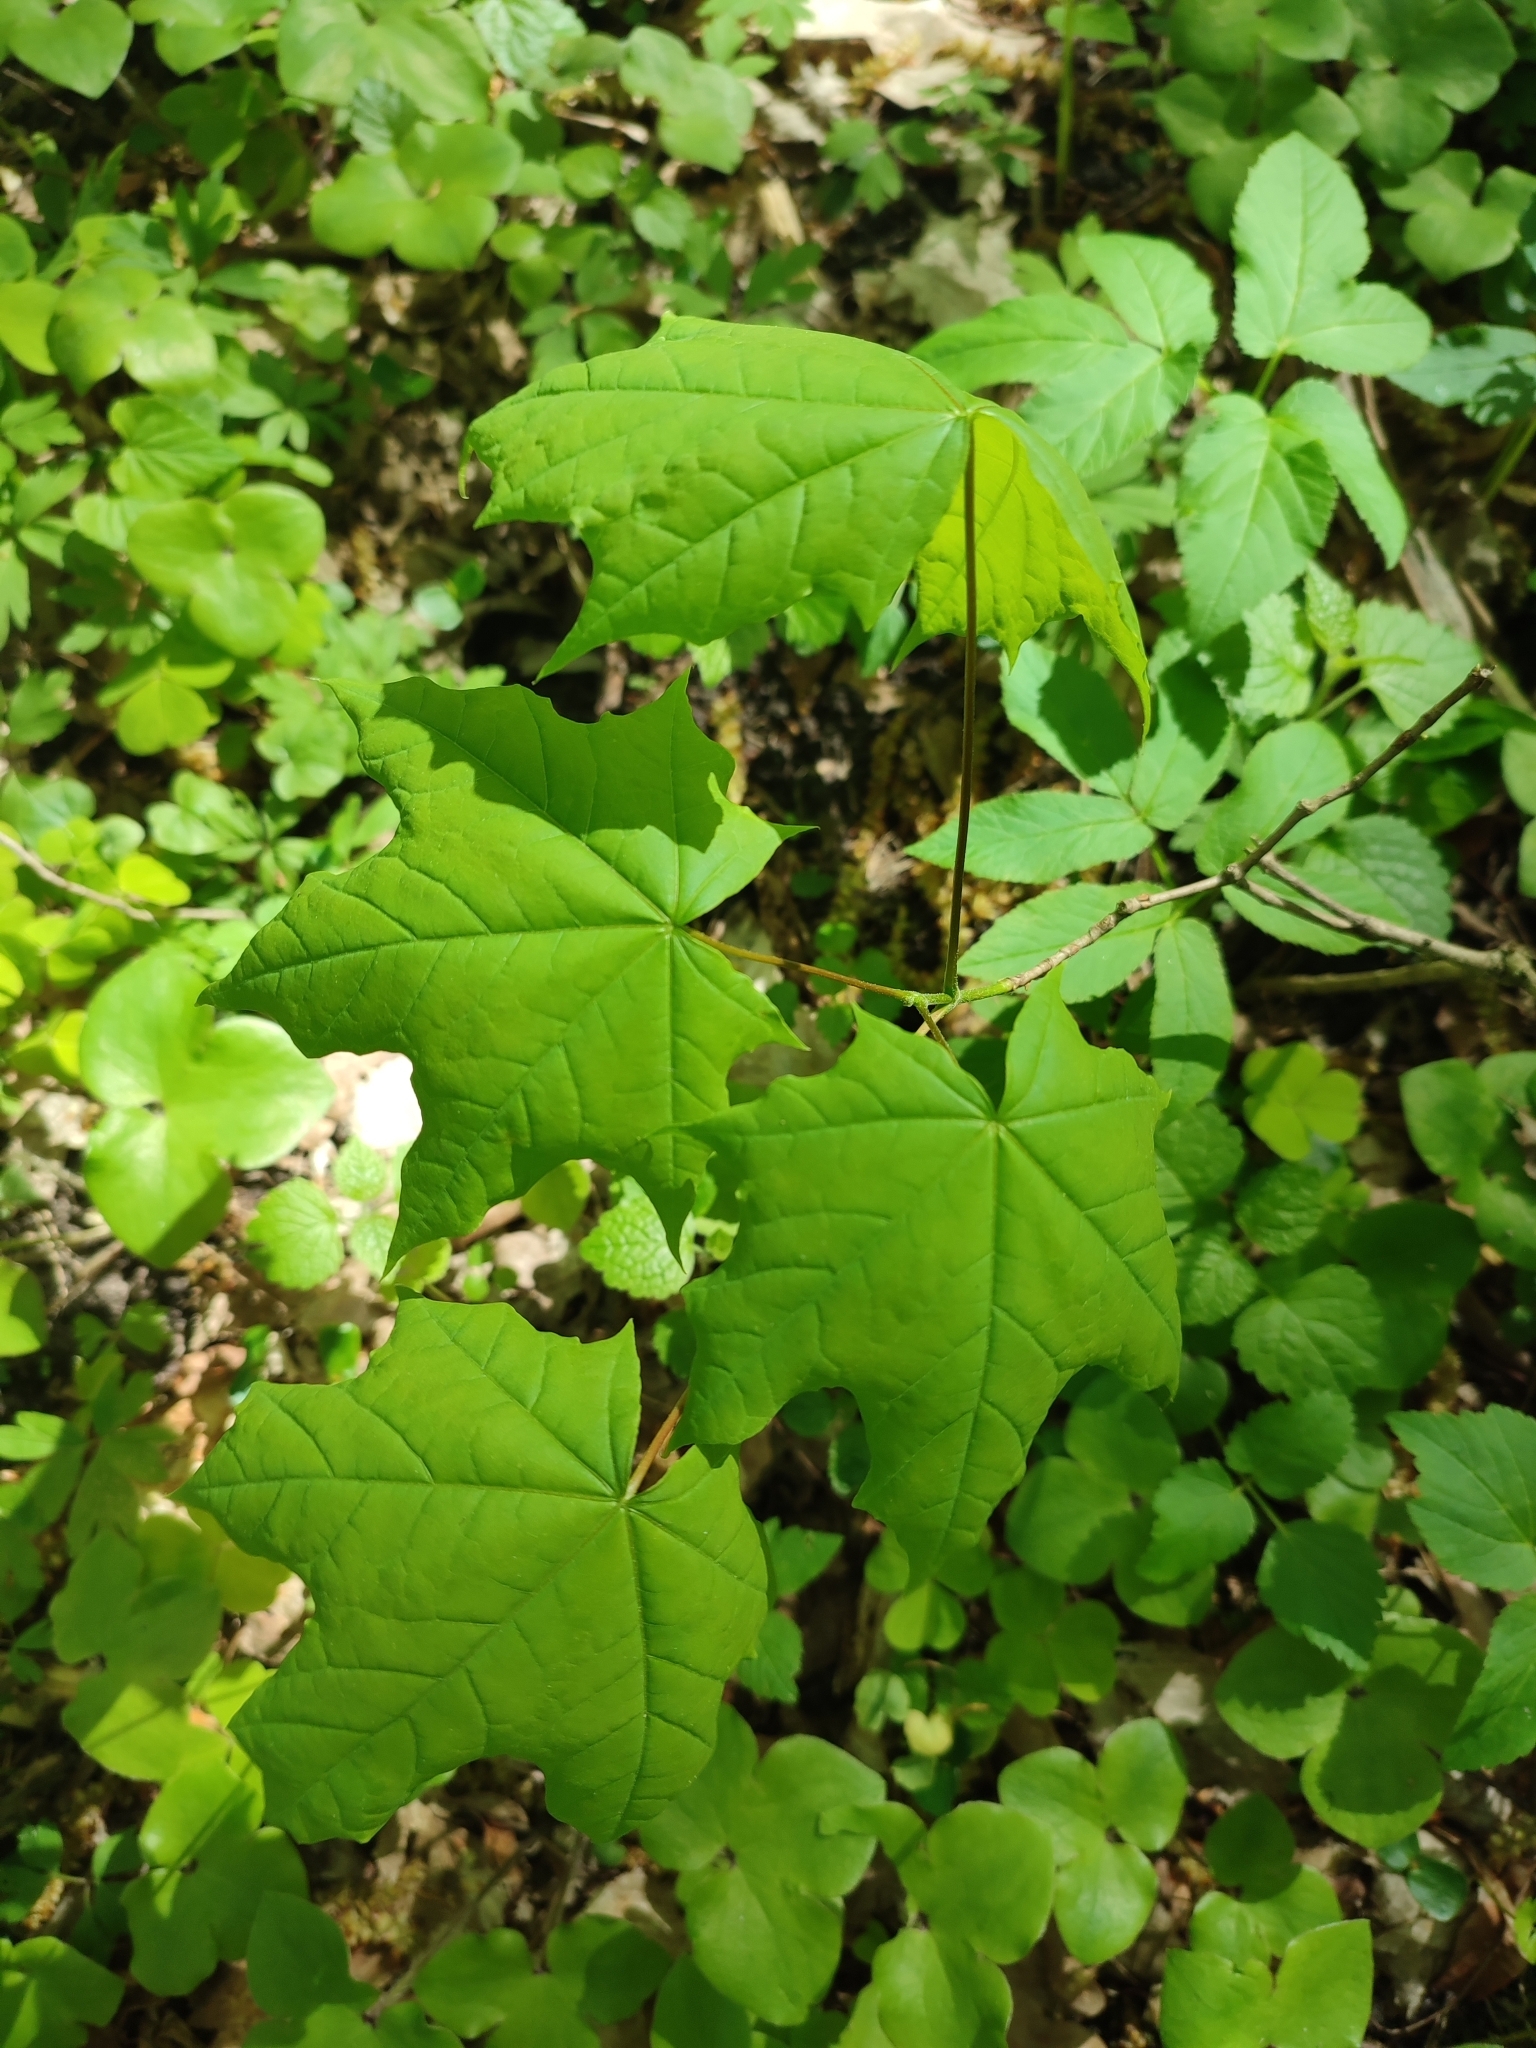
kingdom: Plantae
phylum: Tracheophyta
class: Magnoliopsida
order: Sapindales
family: Sapindaceae
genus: Acer
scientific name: Acer platanoides
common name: Norway maple
